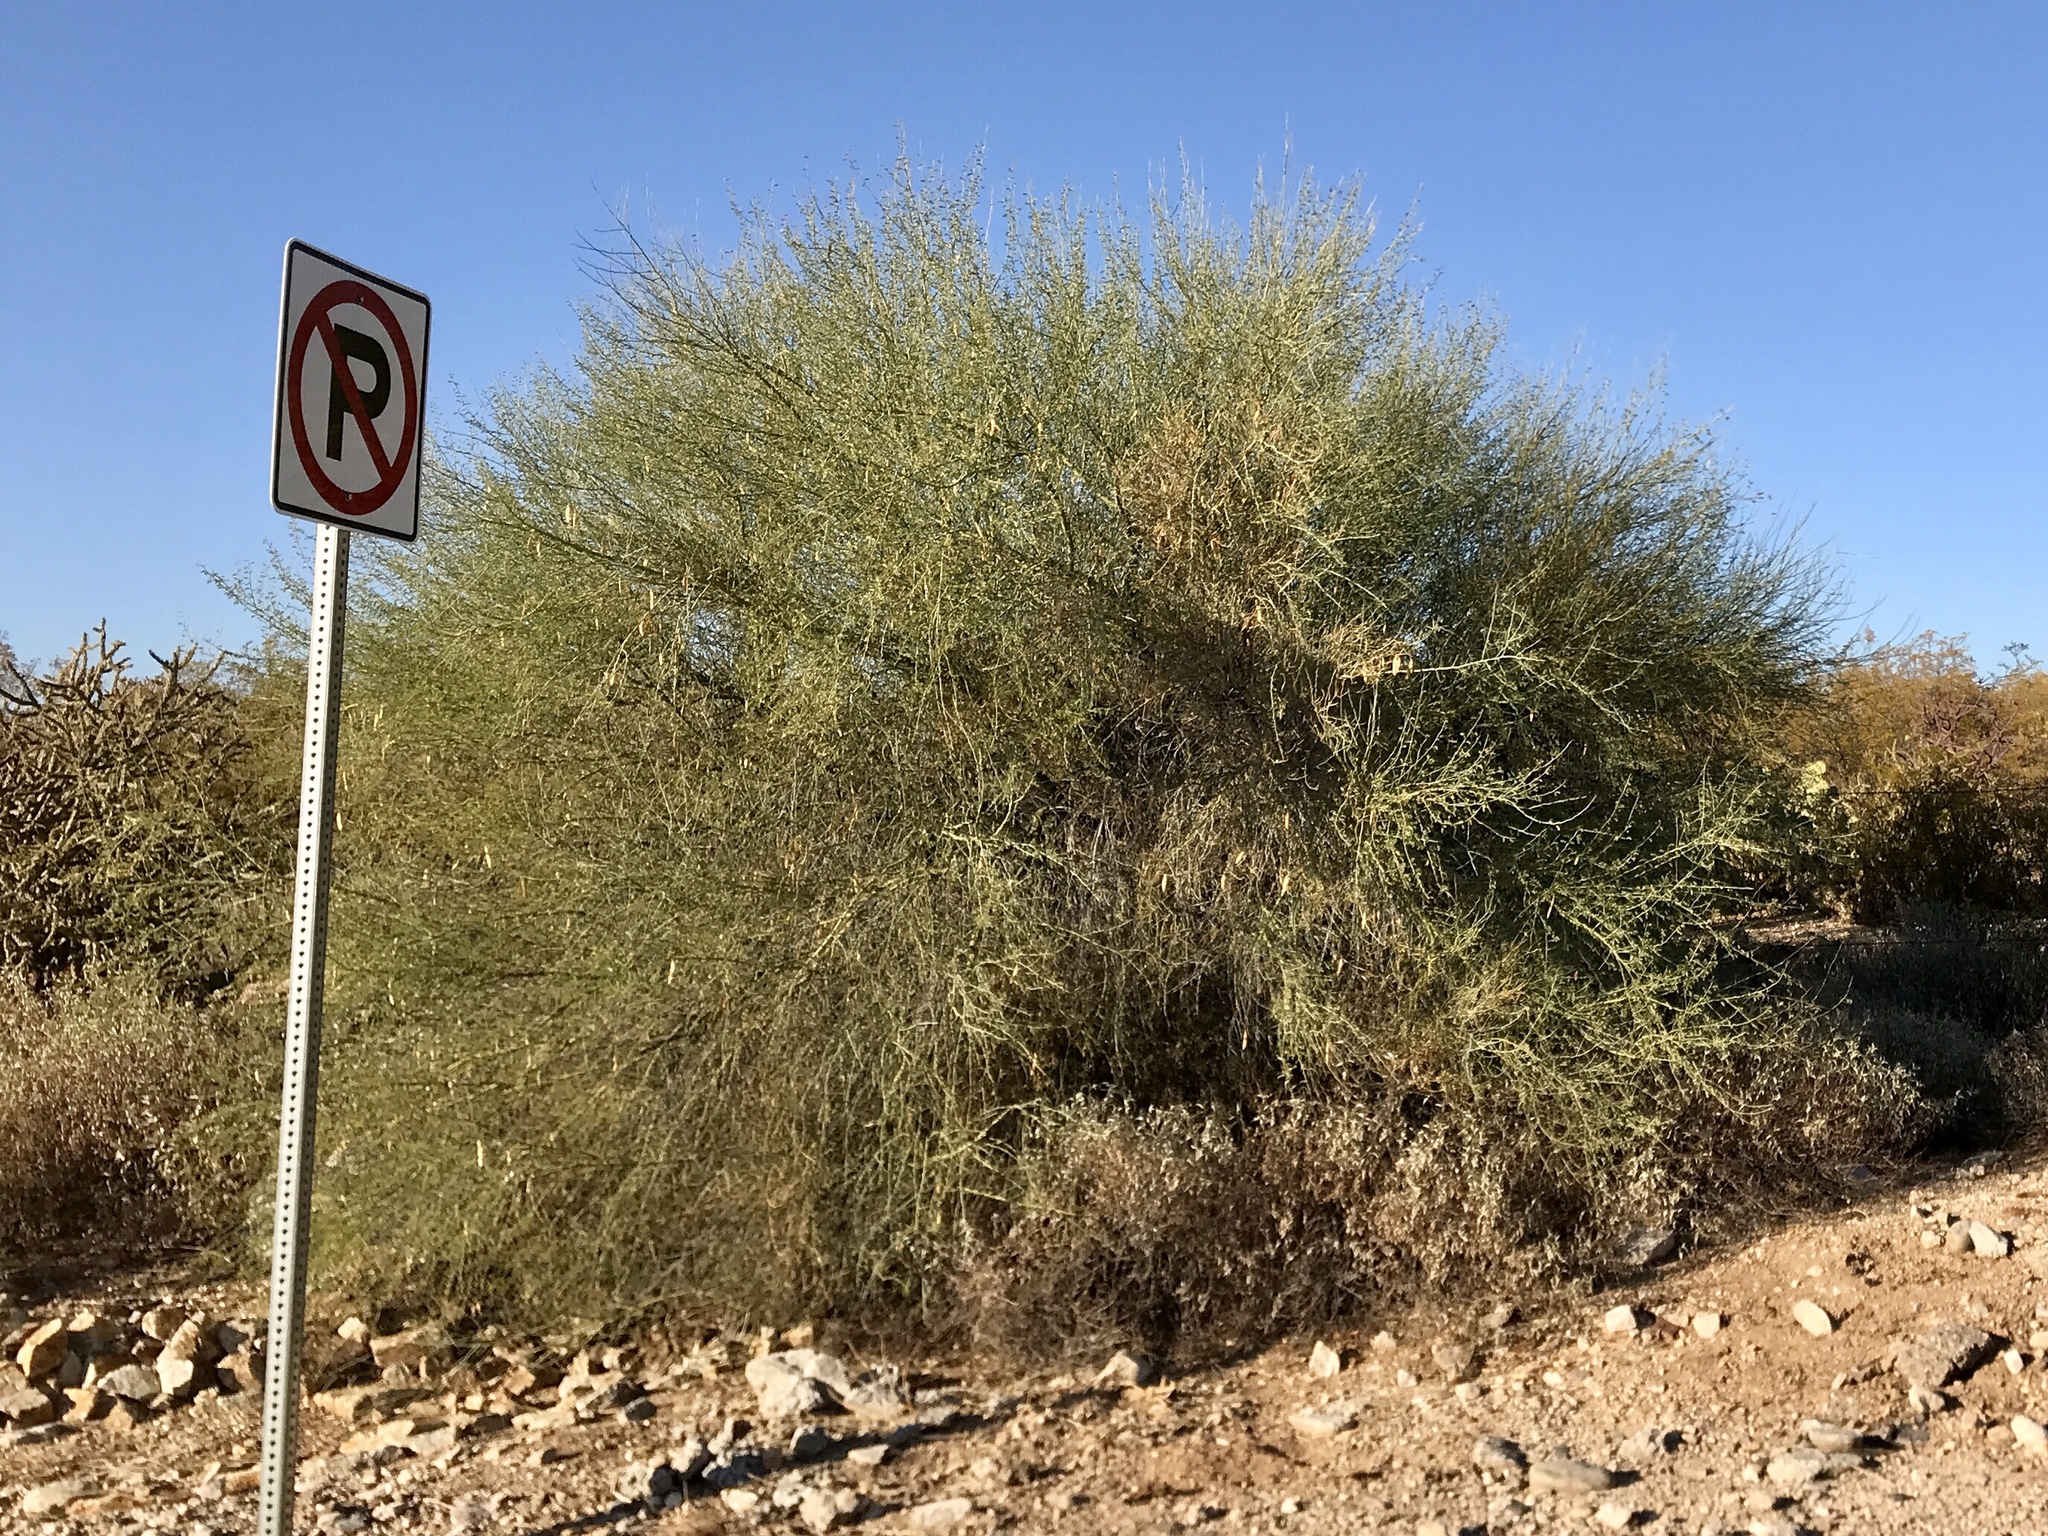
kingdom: Plantae
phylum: Tracheophyta
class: Magnoliopsida
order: Fabales
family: Fabaceae
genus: Parkinsonia
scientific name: Parkinsonia florida
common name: Blue paloverde
